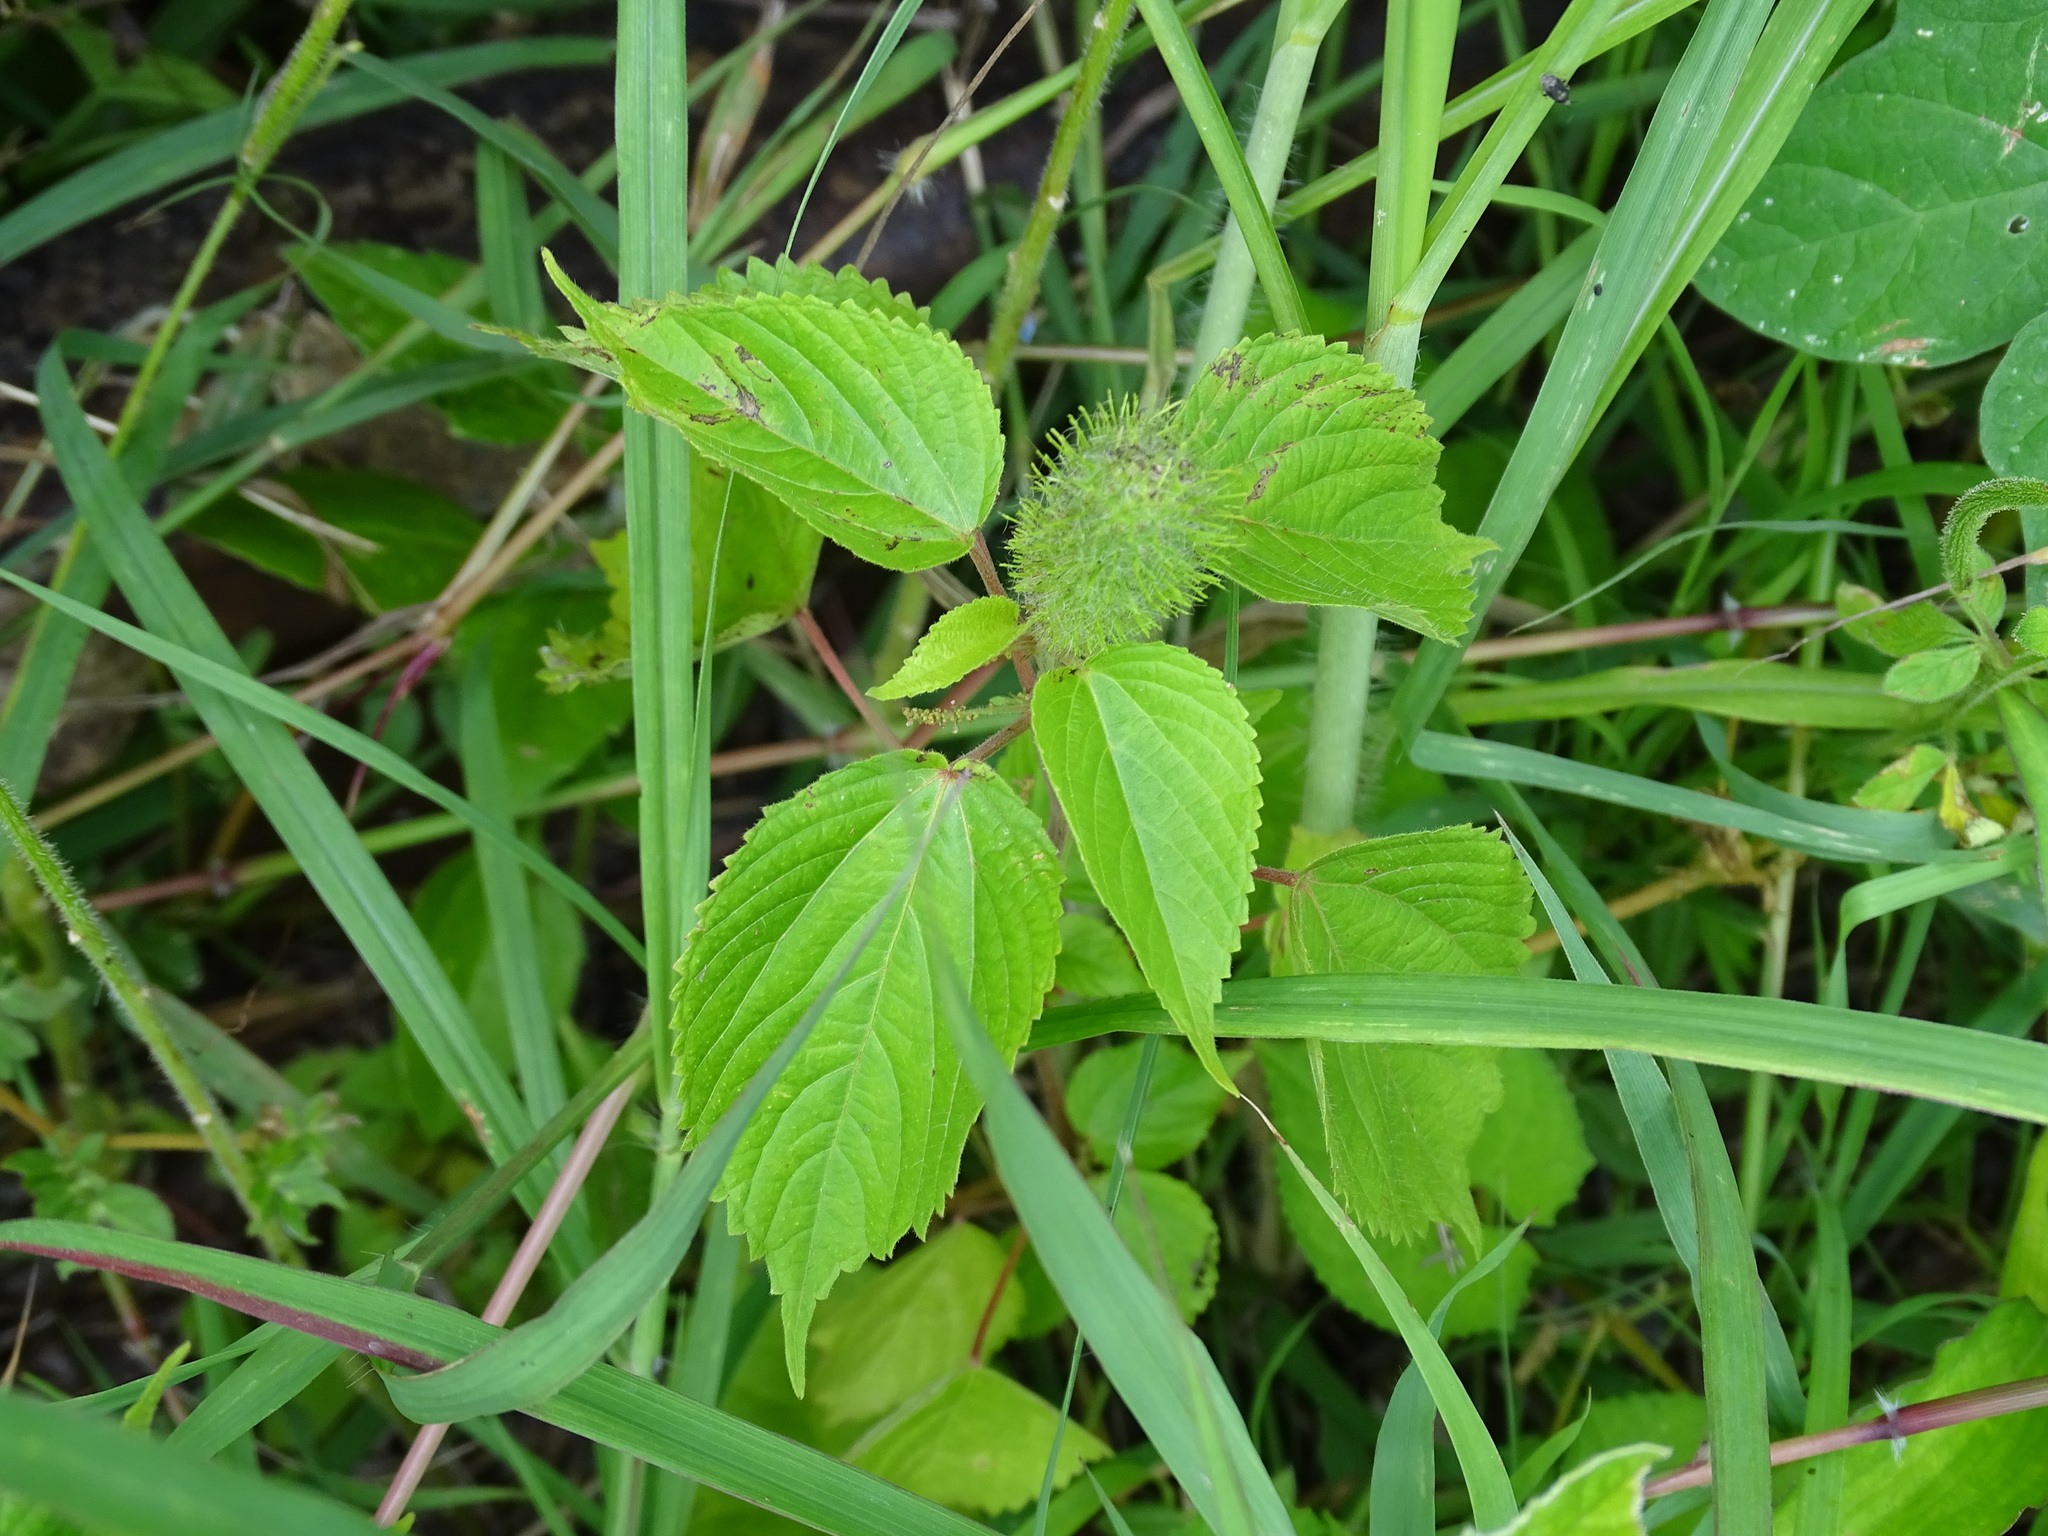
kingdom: Plantae
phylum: Tracheophyta
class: Magnoliopsida
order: Malpighiales
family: Euphorbiaceae
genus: Acalypha
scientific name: Acalypha alopecuroidea
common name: Foxtail copperleaf
